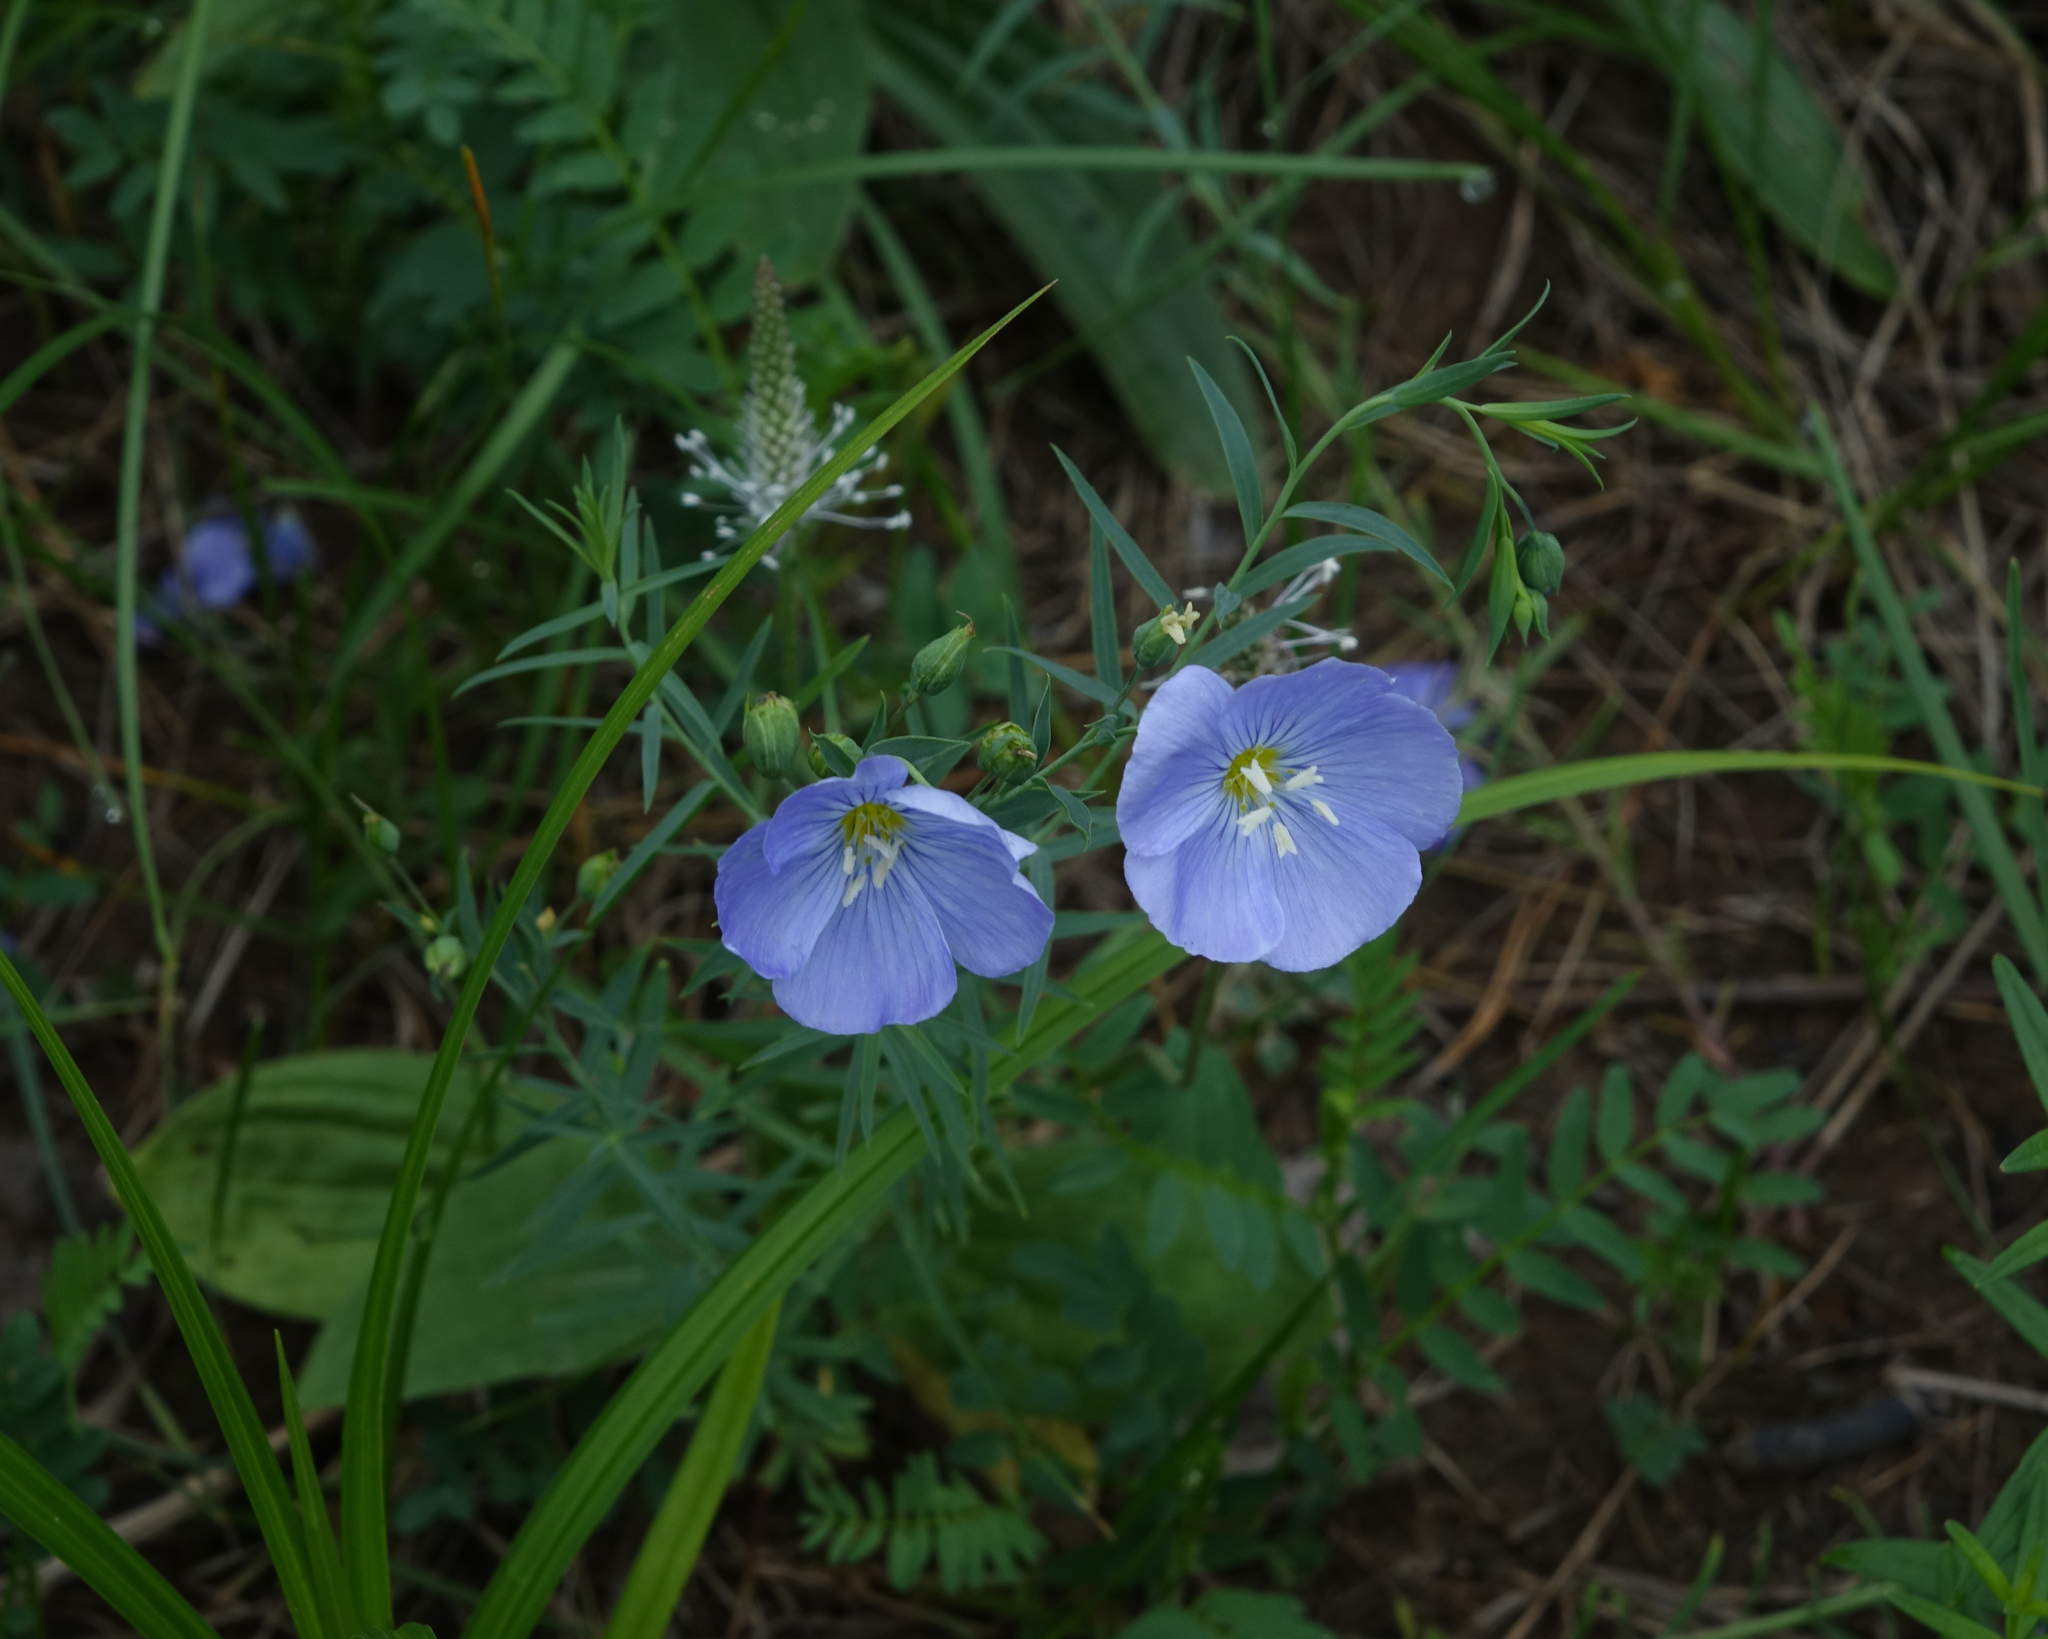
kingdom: Plantae
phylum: Tracheophyta
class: Magnoliopsida
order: Lamiales
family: Plantaginaceae
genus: Plantago
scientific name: Plantago media
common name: Hoary plantain
